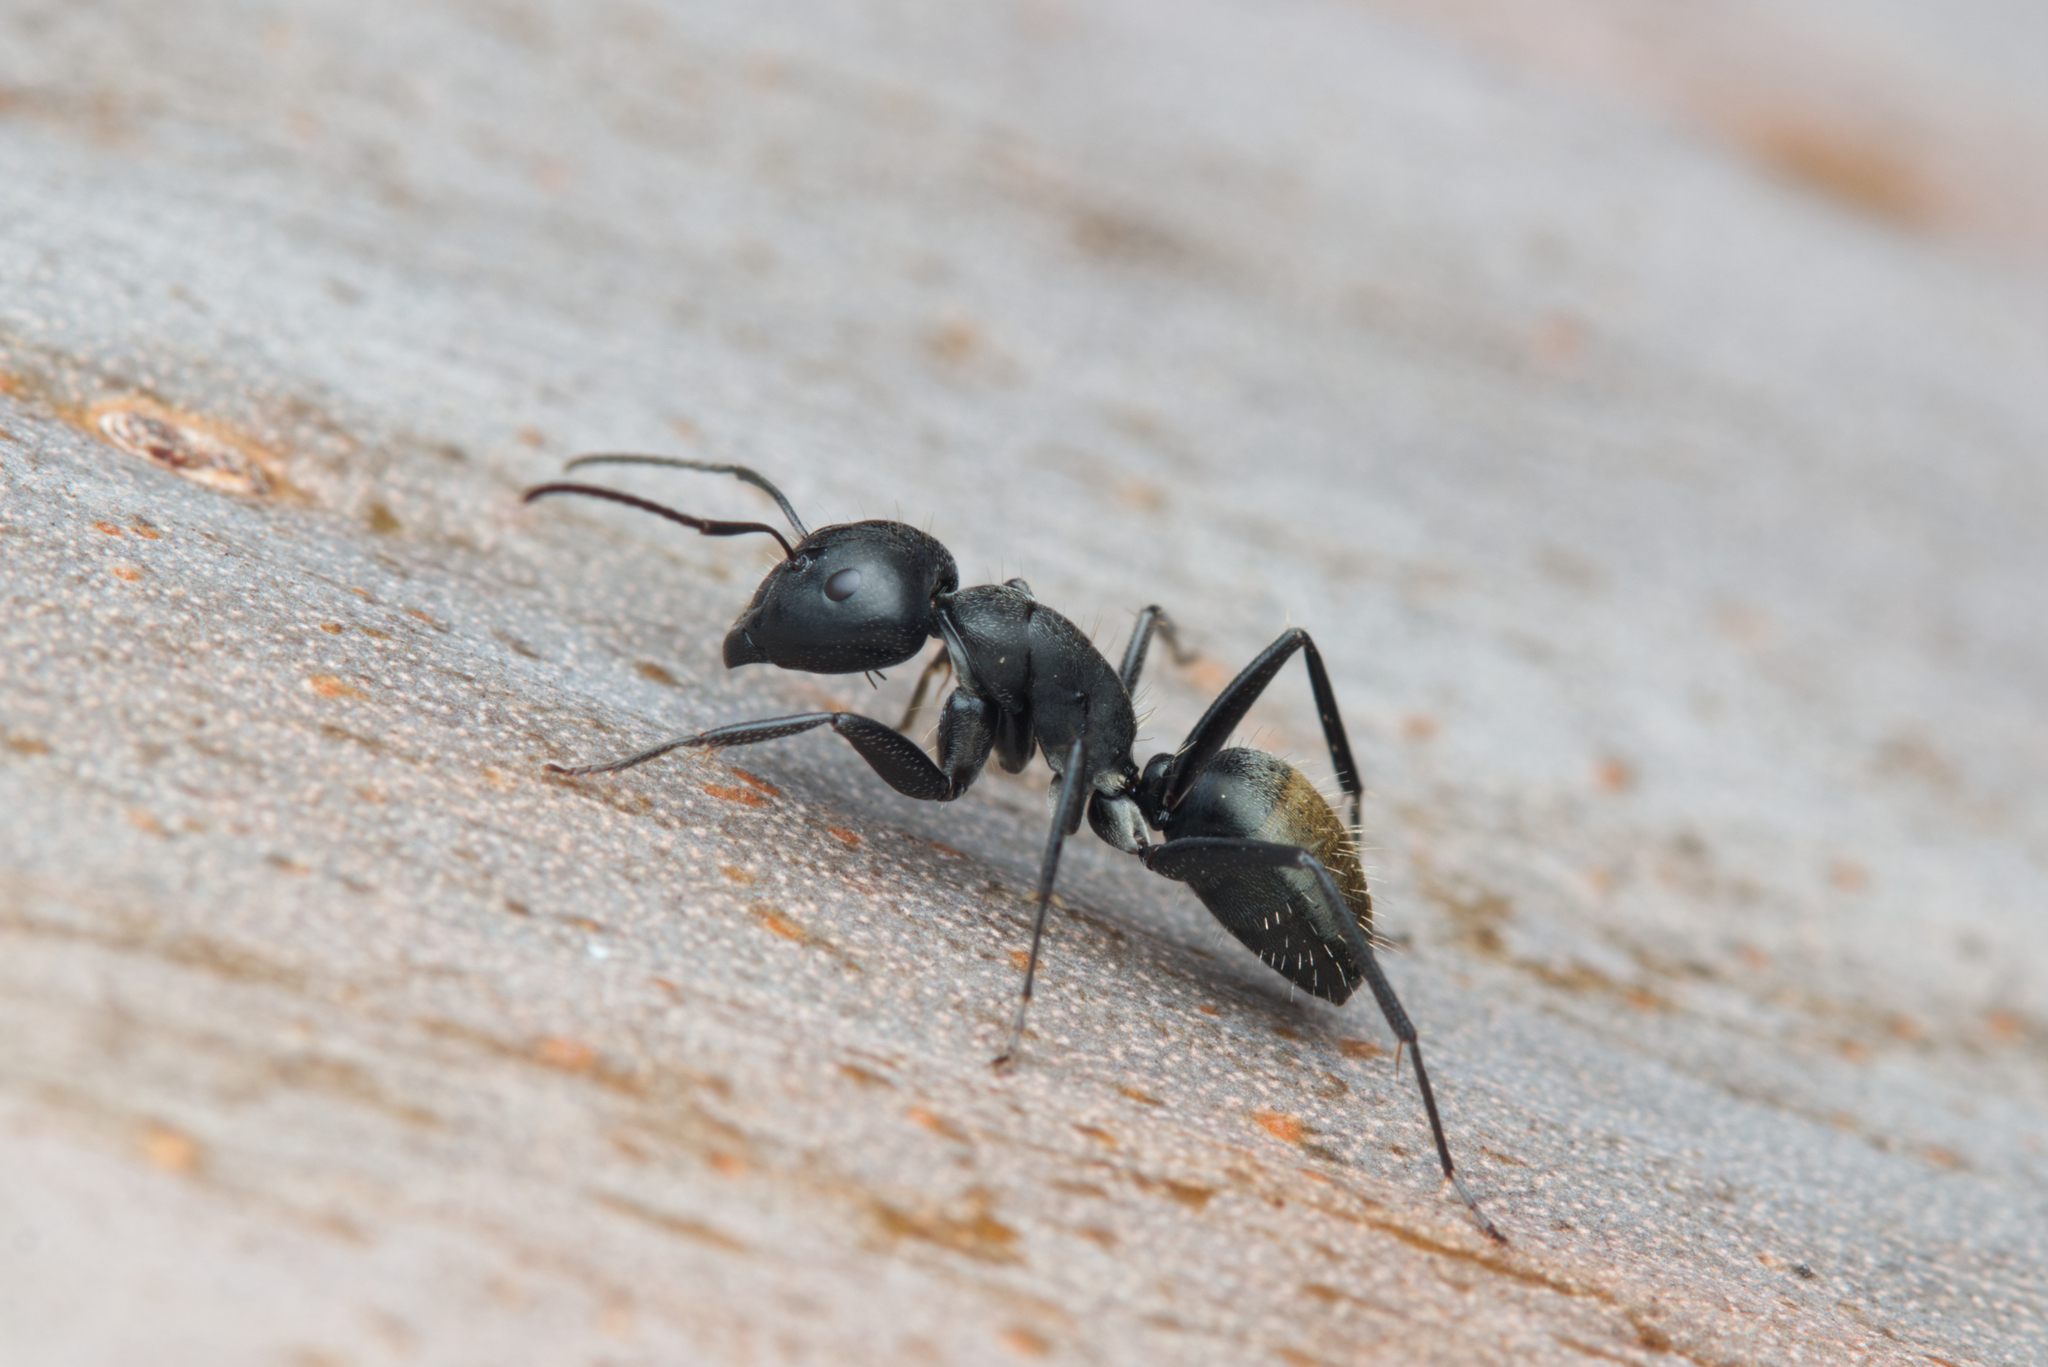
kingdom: Animalia
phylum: Arthropoda
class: Insecta
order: Hymenoptera
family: Formicidae
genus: Camponotus
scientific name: Camponotus aeneopilosus
